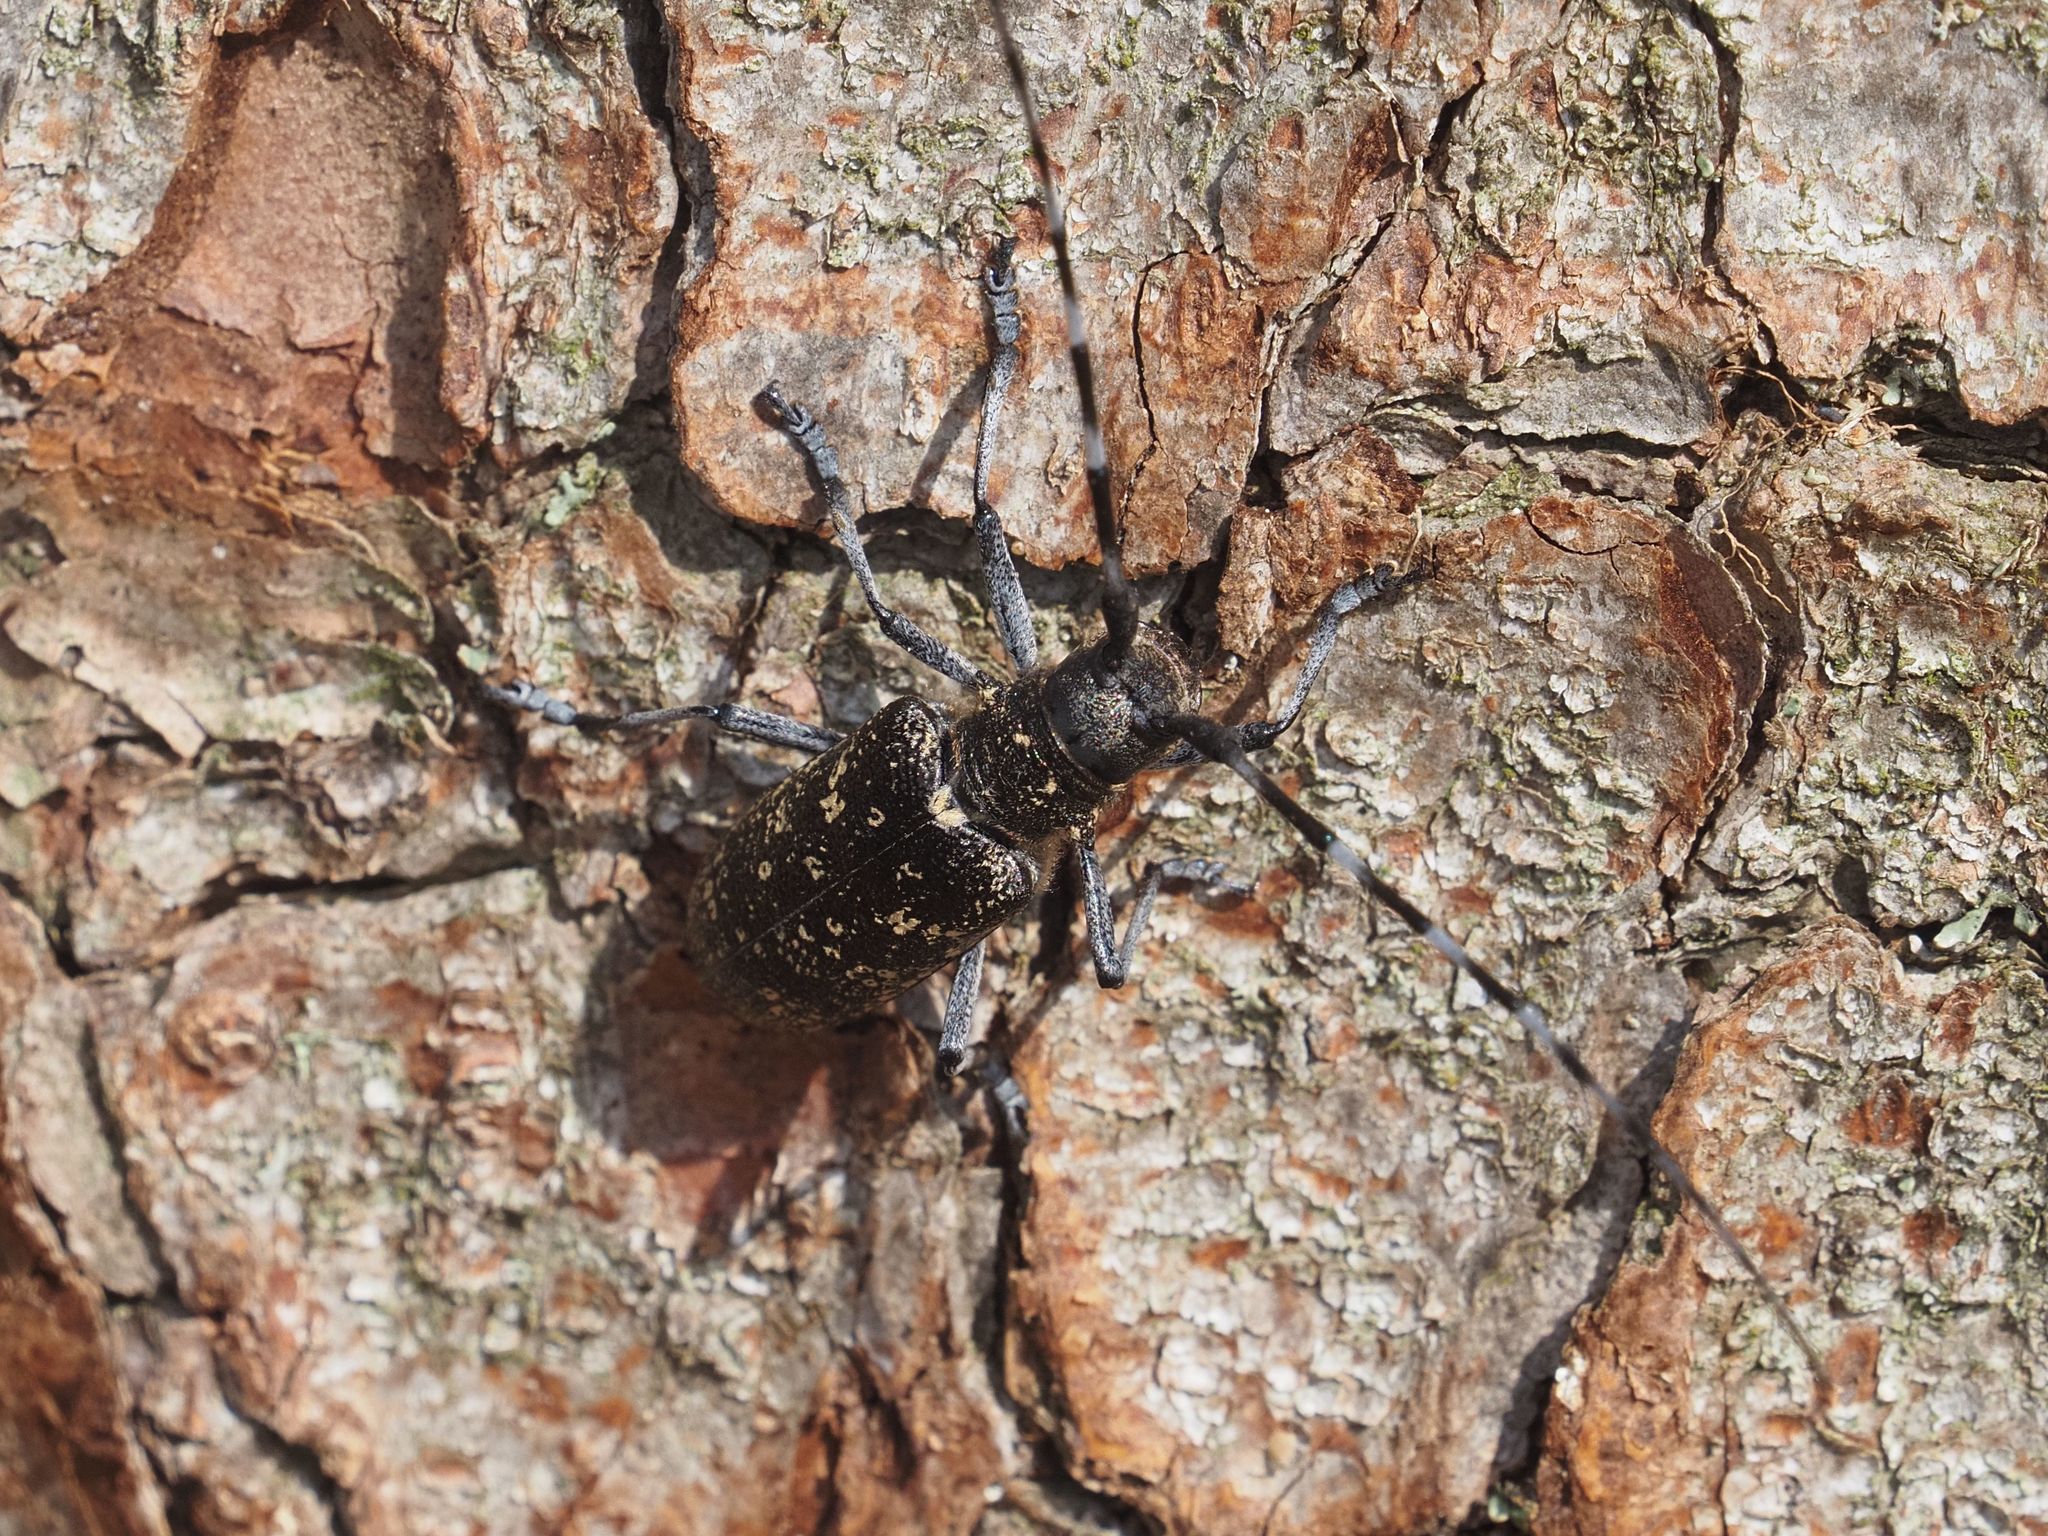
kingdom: Animalia
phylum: Arthropoda
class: Insecta
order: Coleoptera
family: Cerambycidae
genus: Monochamus
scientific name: Monochamus sutor
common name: Pine sawyer
